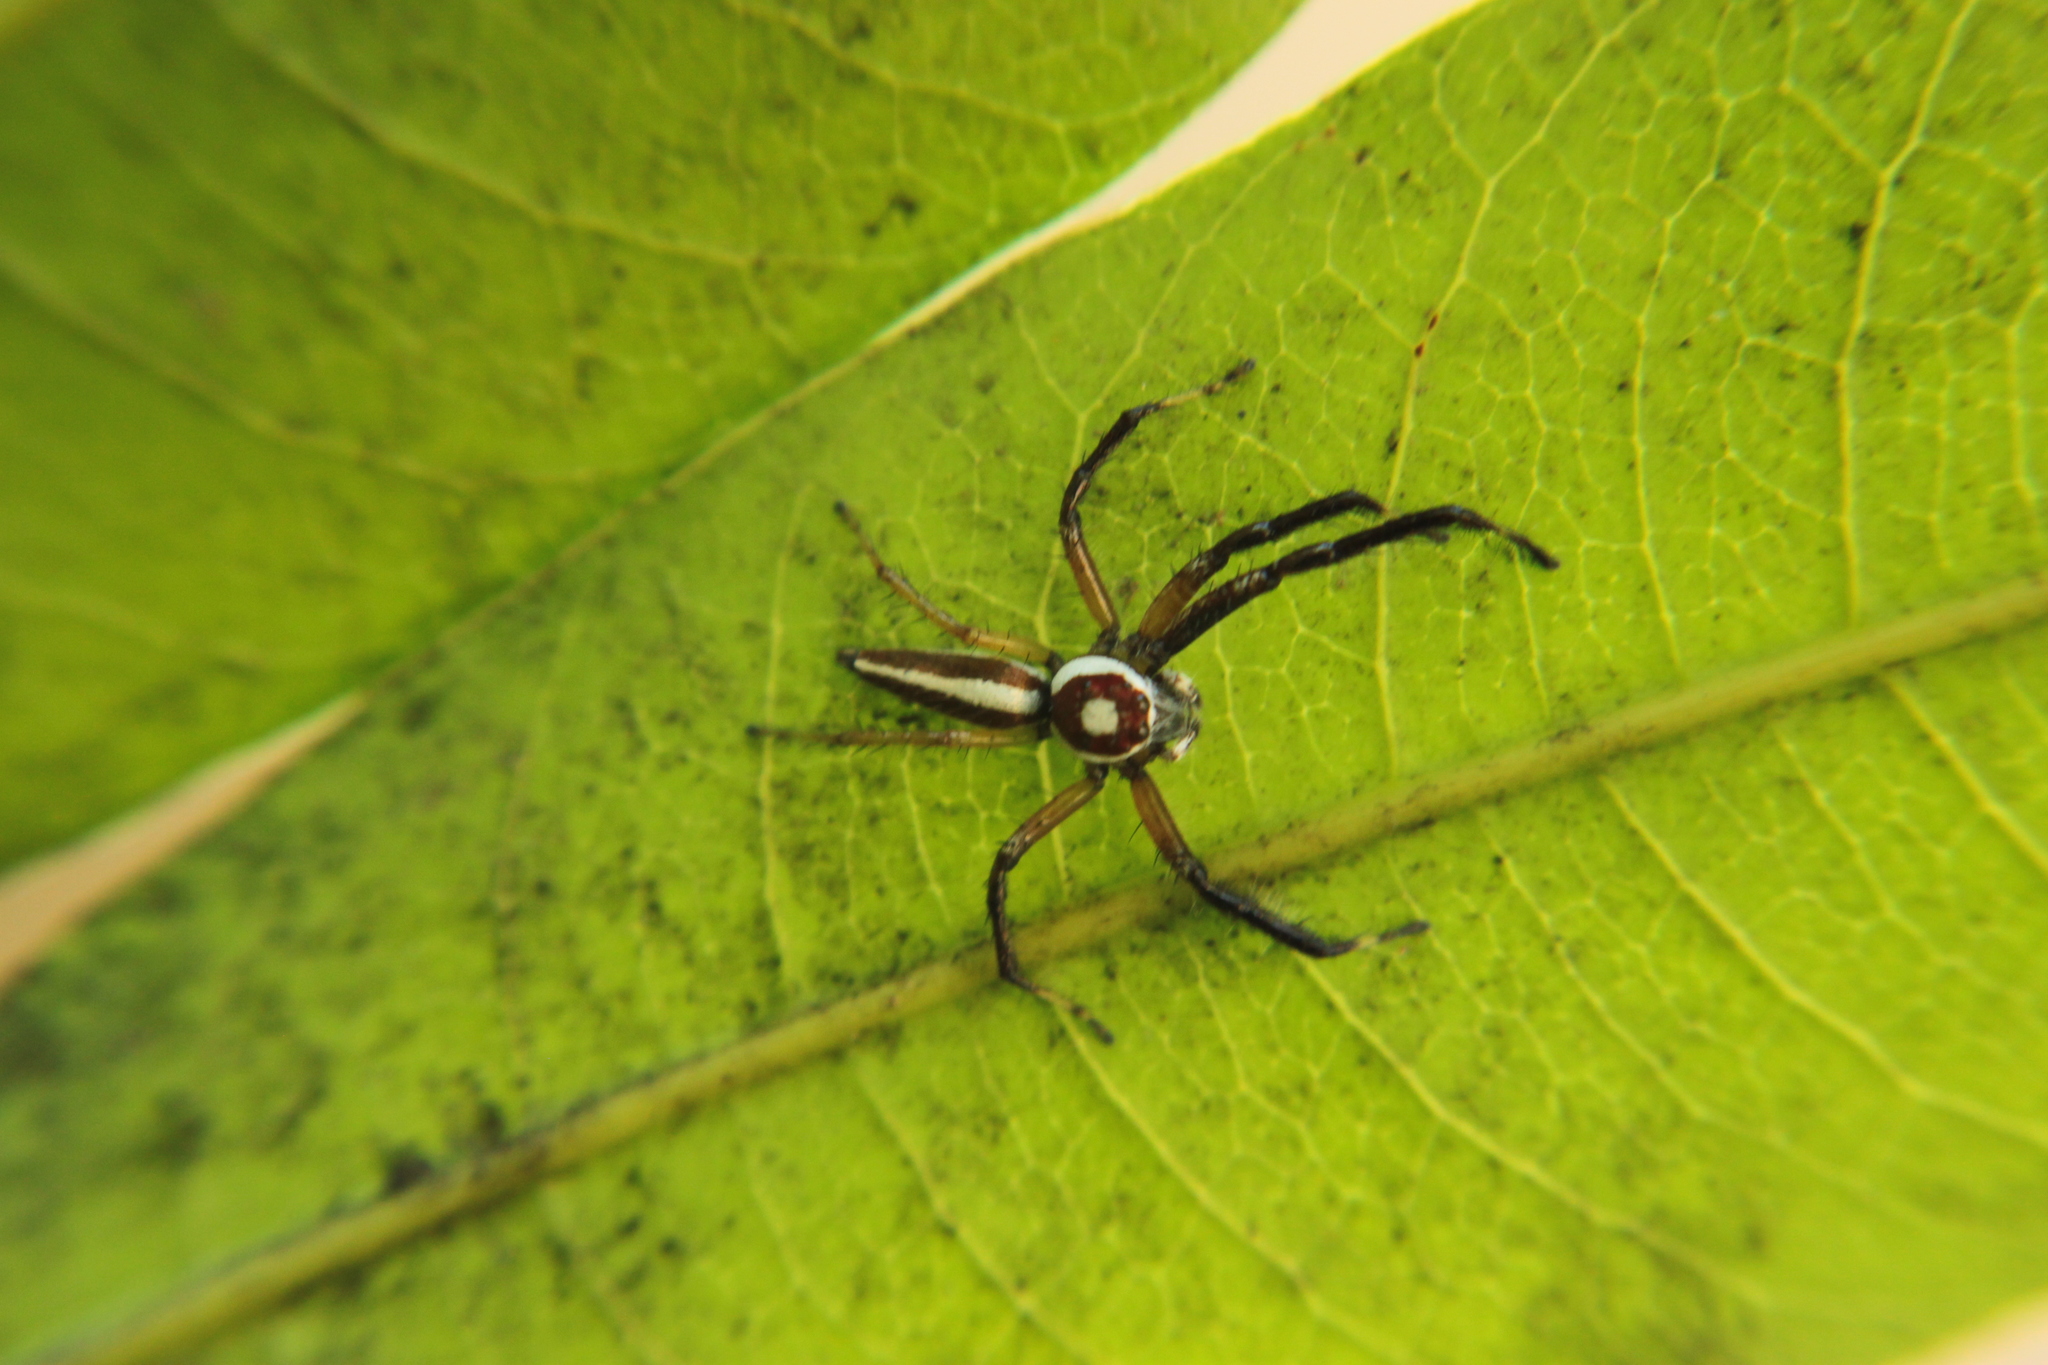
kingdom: Animalia
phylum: Arthropoda
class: Arachnida
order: Araneae
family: Salticidae
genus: Telamonia
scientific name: Telamonia dimidiata
